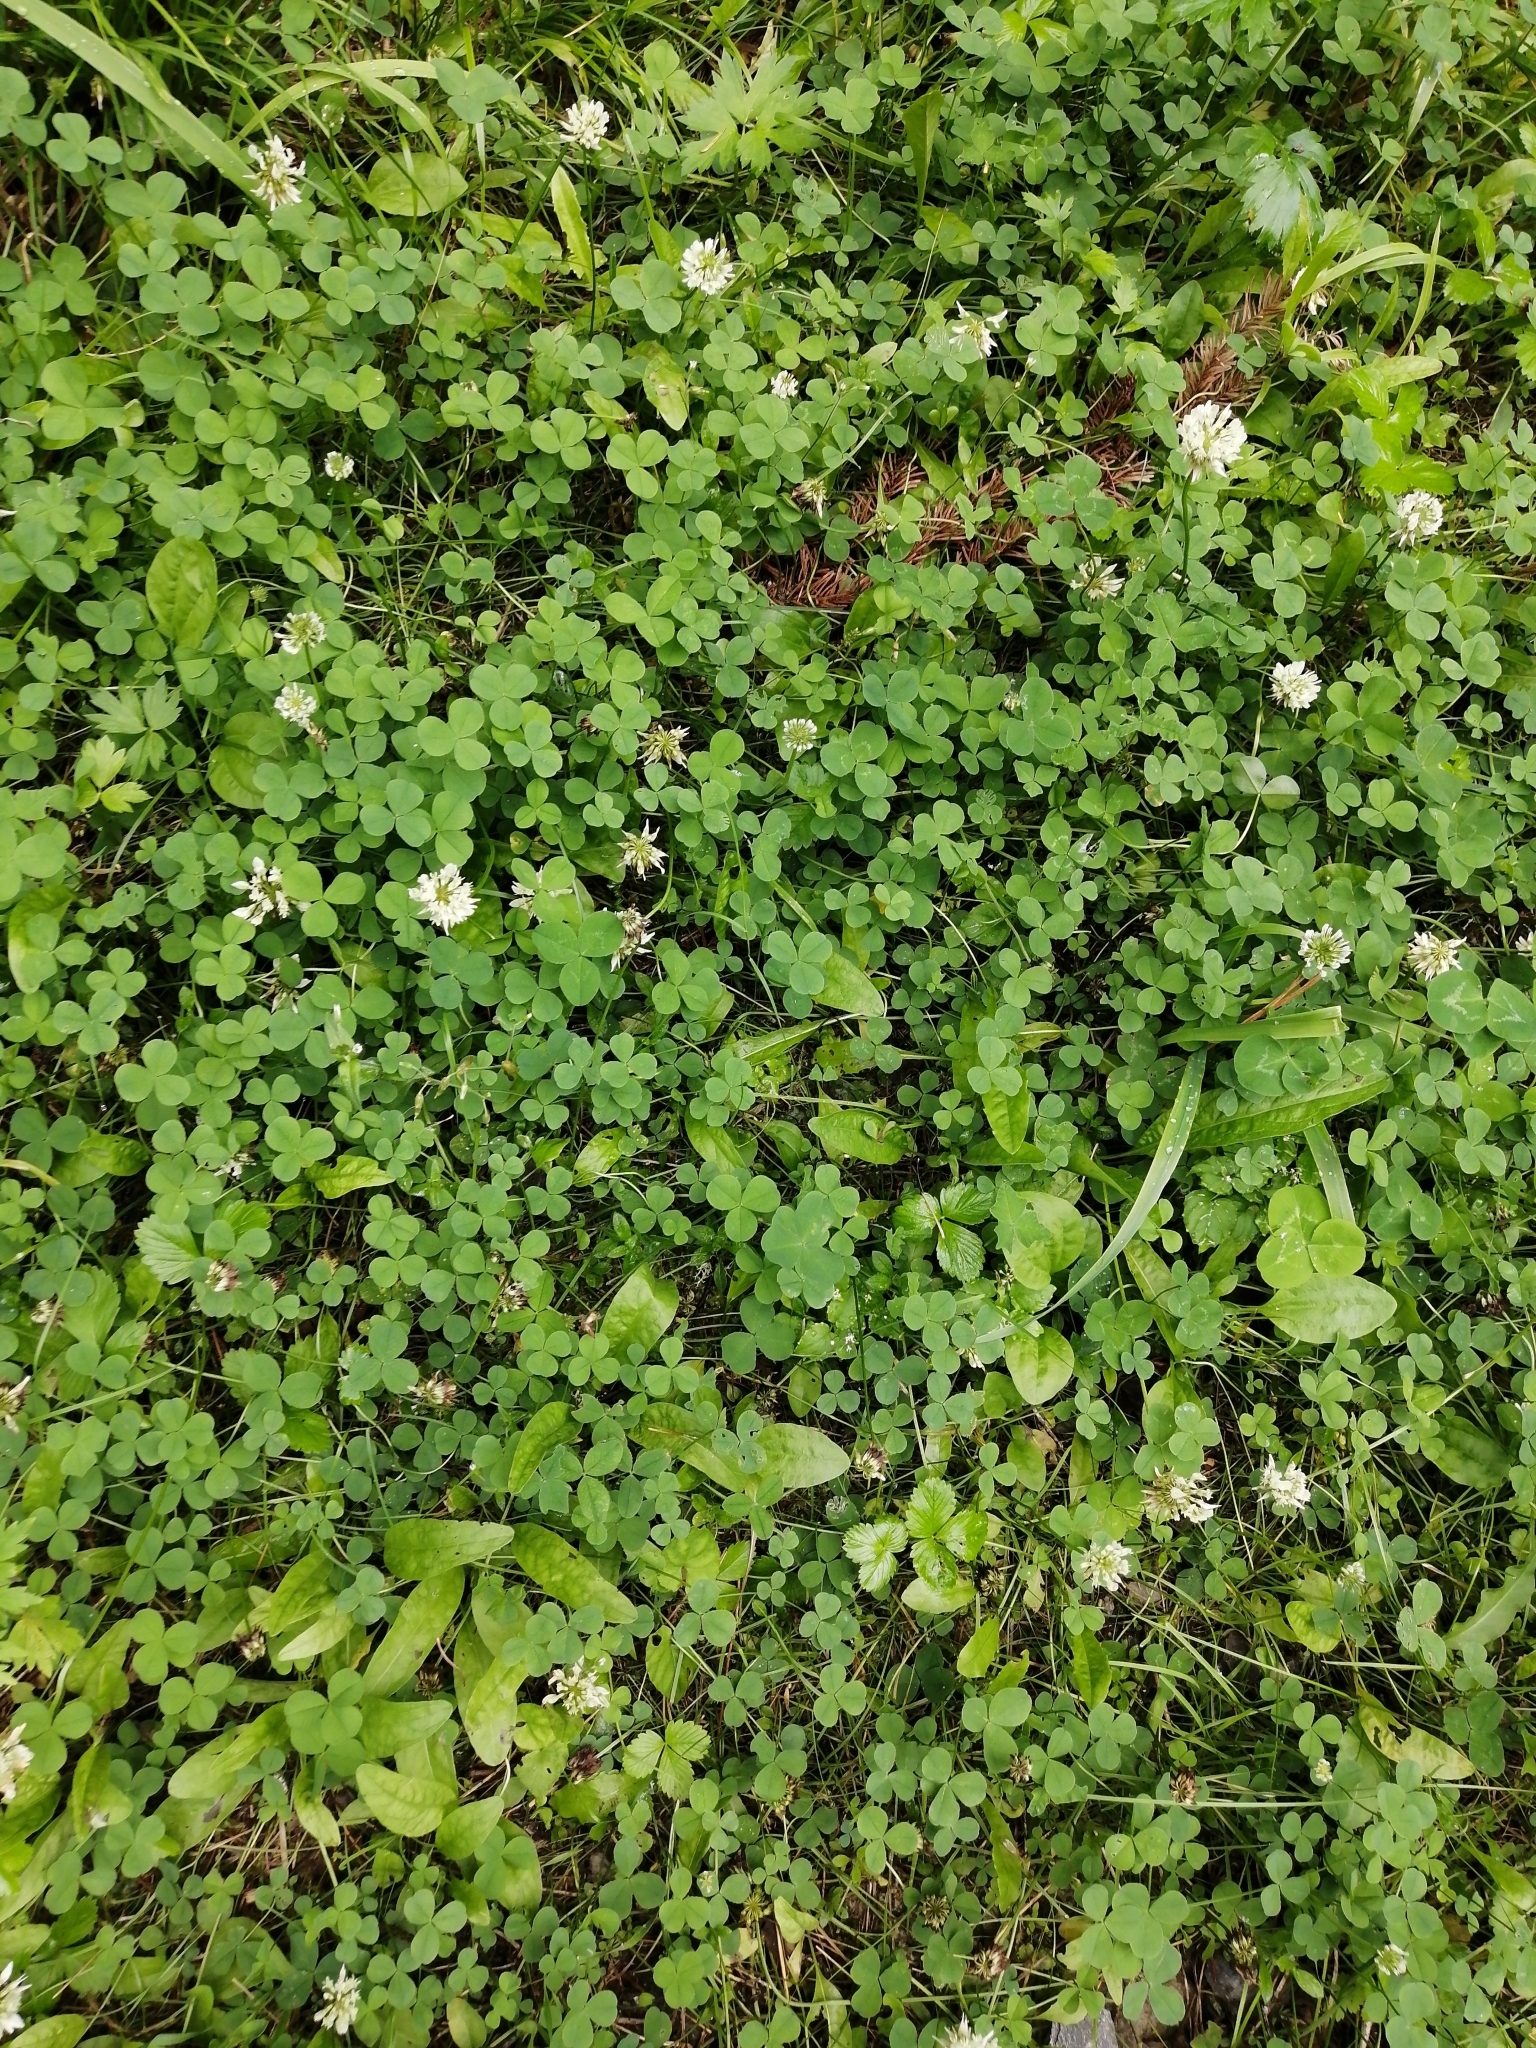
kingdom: Plantae
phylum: Tracheophyta
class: Magnoliopsida
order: Fabales
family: Fabaceae
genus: Trifolium
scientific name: Trifolium repens
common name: White clover
